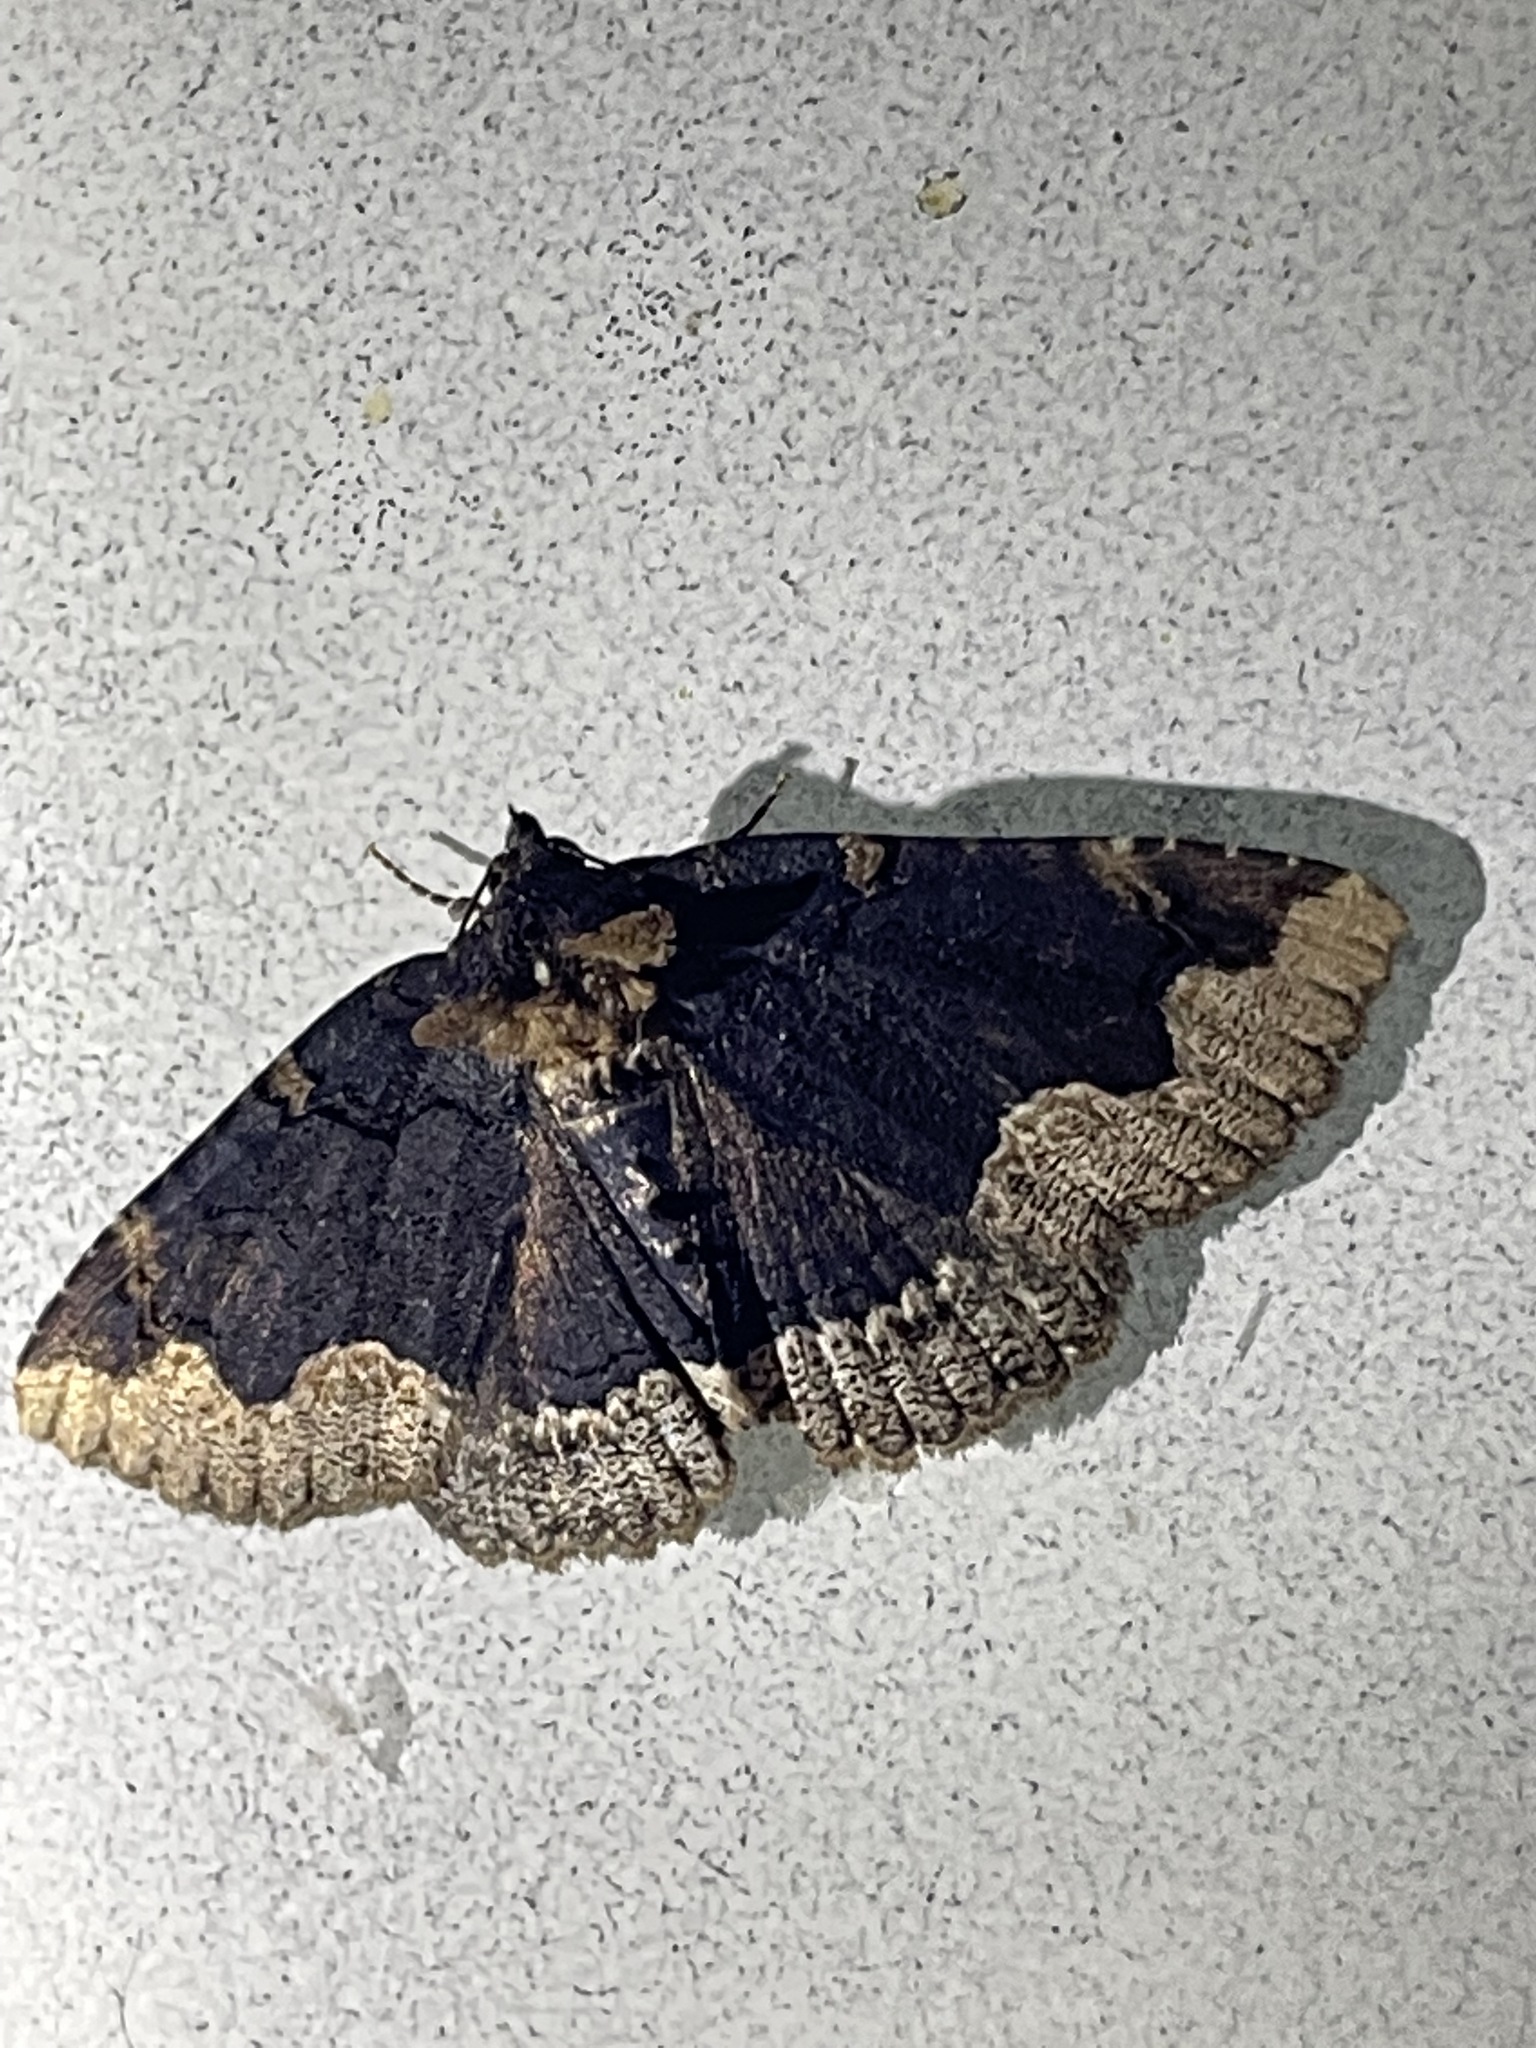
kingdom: Animalia
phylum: Arthropoda
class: Insecta
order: Lepidoptera
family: Erebidae
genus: Zale
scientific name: Zale horrida
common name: Horrid zale moth
